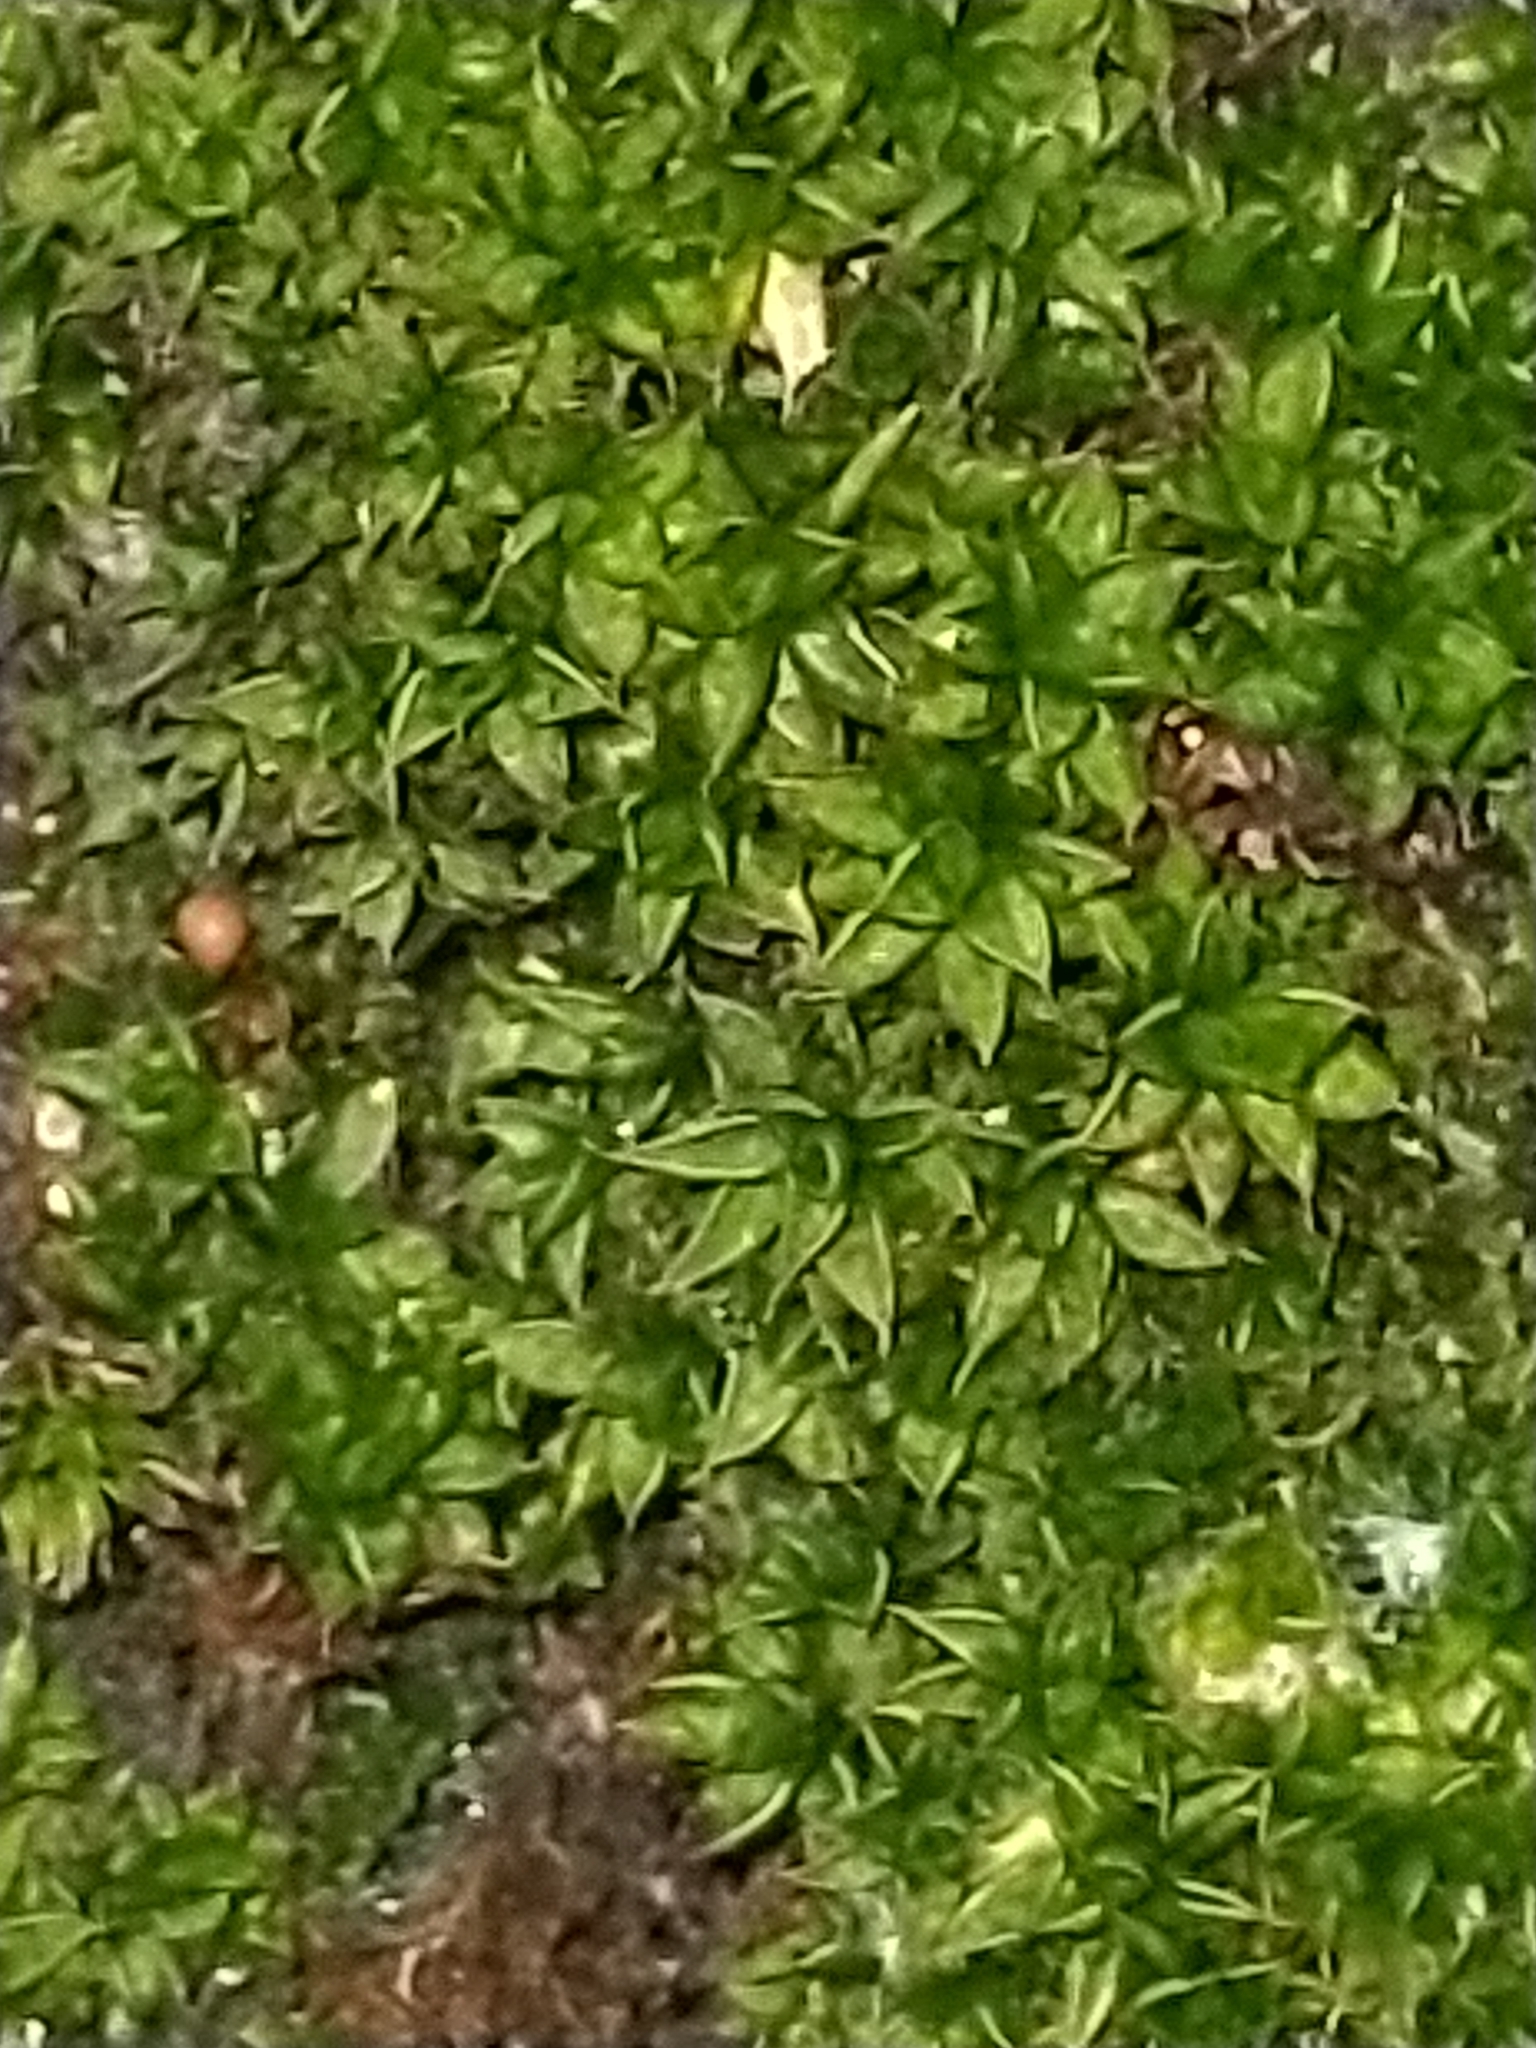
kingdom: Plantae
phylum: Bryophyta
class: Bryopsida
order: Pottiales
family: Pottiaceae
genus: Syntrichia
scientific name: Syntrichia papillosa
